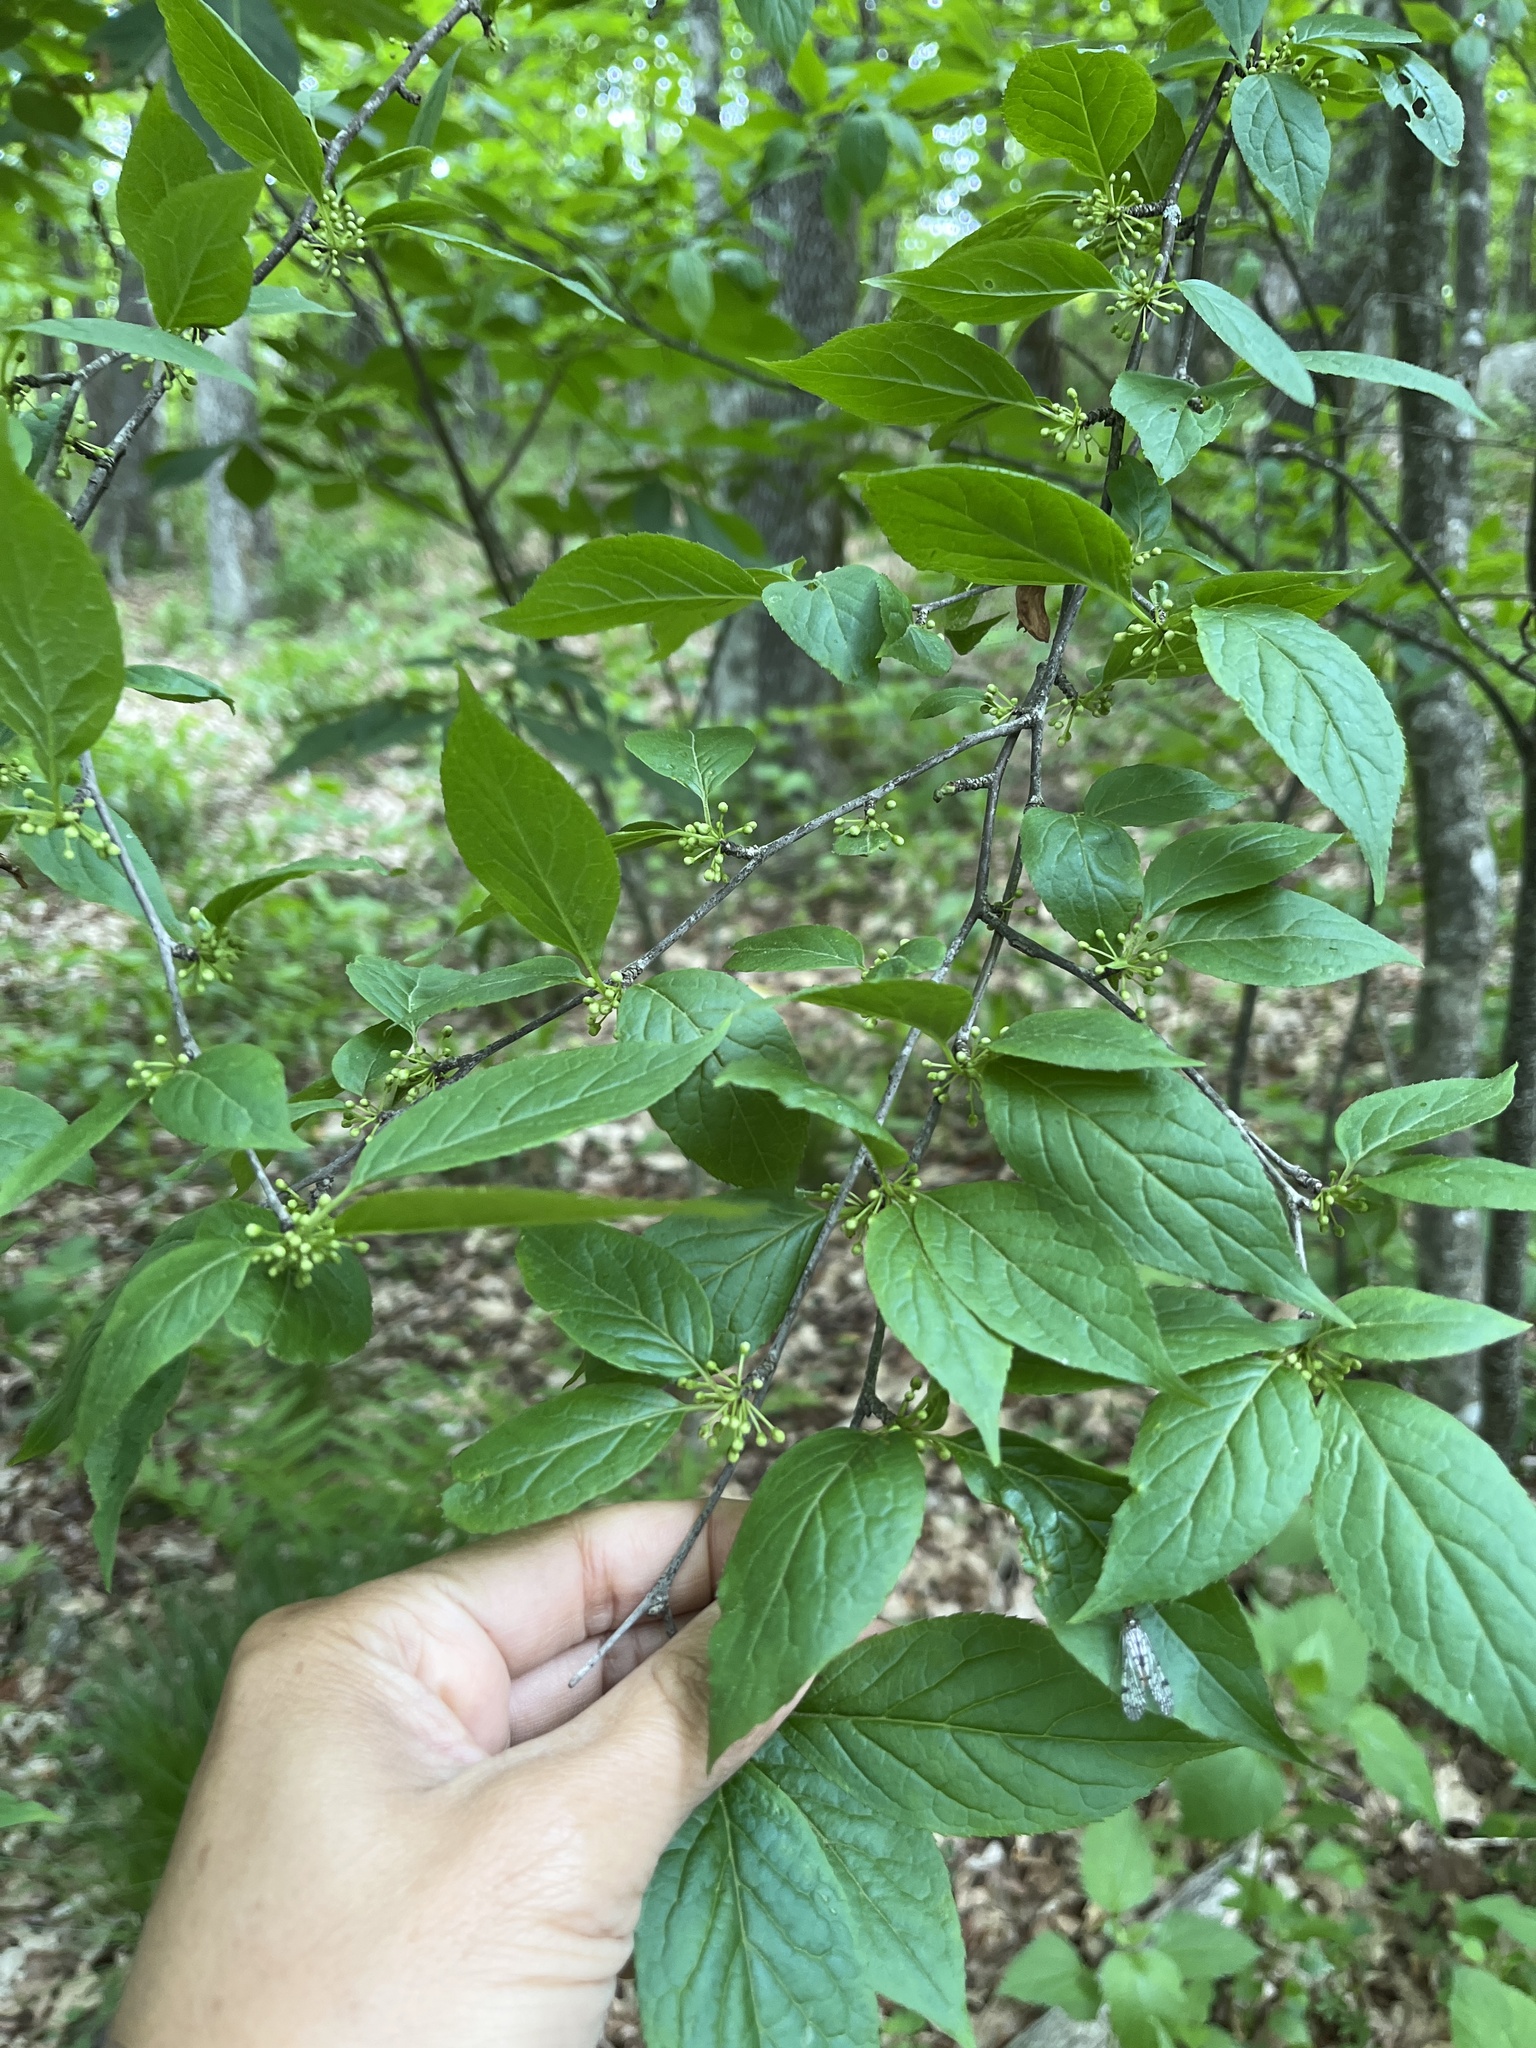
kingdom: Plantae
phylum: Tracheophyta
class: Magnoliopsida
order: Aquifoliales
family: Aquifoliaceae
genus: Ilex
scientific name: Ilex montana
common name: Mountain winterberry
